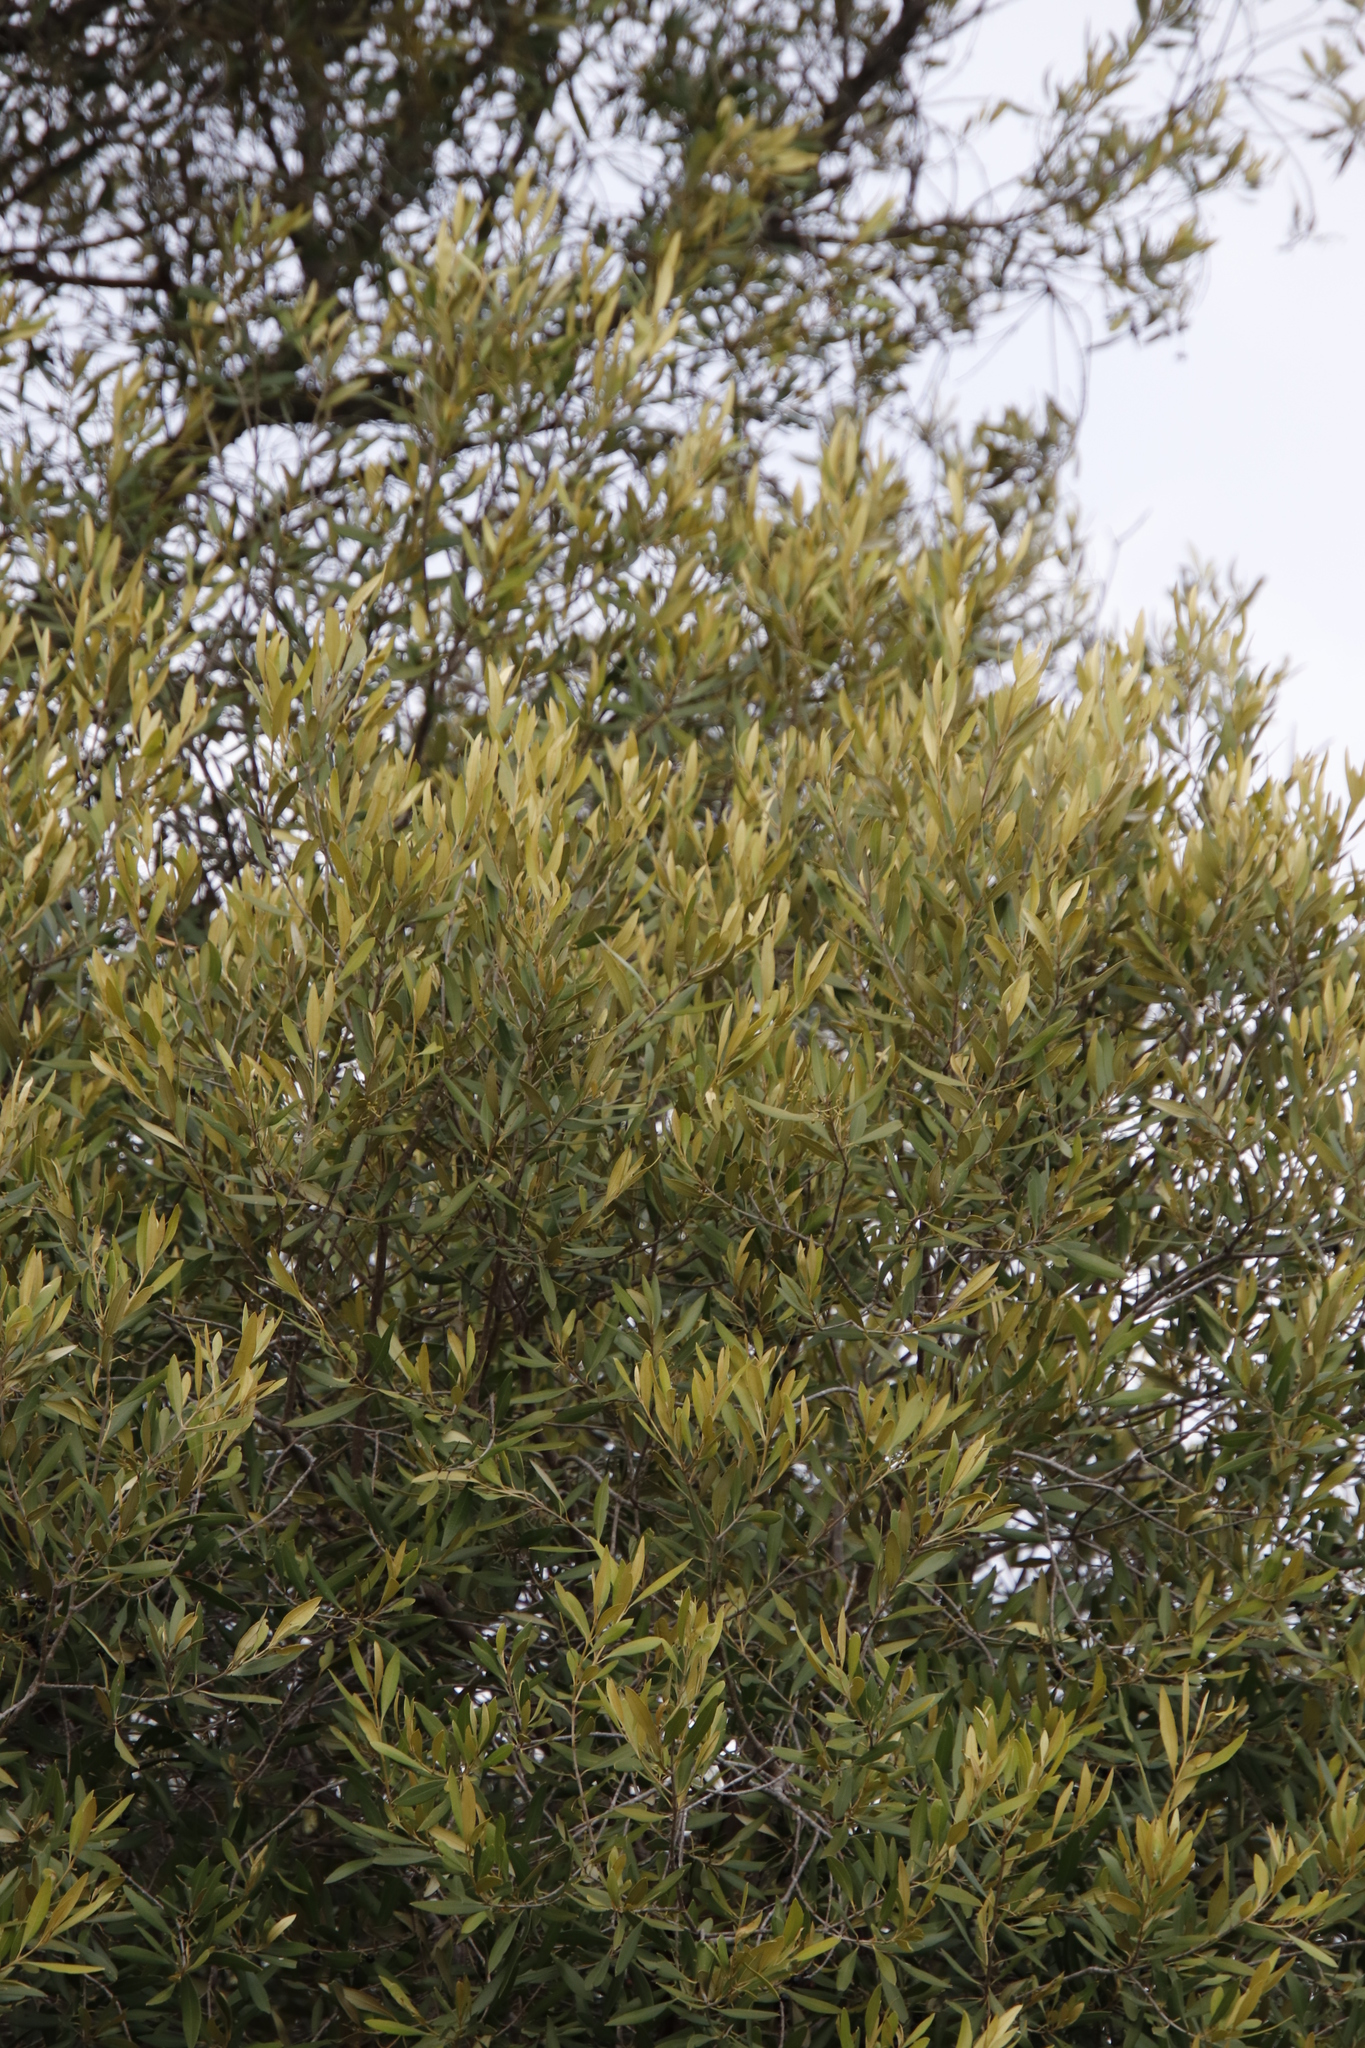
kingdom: Plantae
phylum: Tracheophyta
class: Magnoliopsida
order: Lamiales
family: Oleaceae
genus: Olea
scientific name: Olea europaea
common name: Olive
